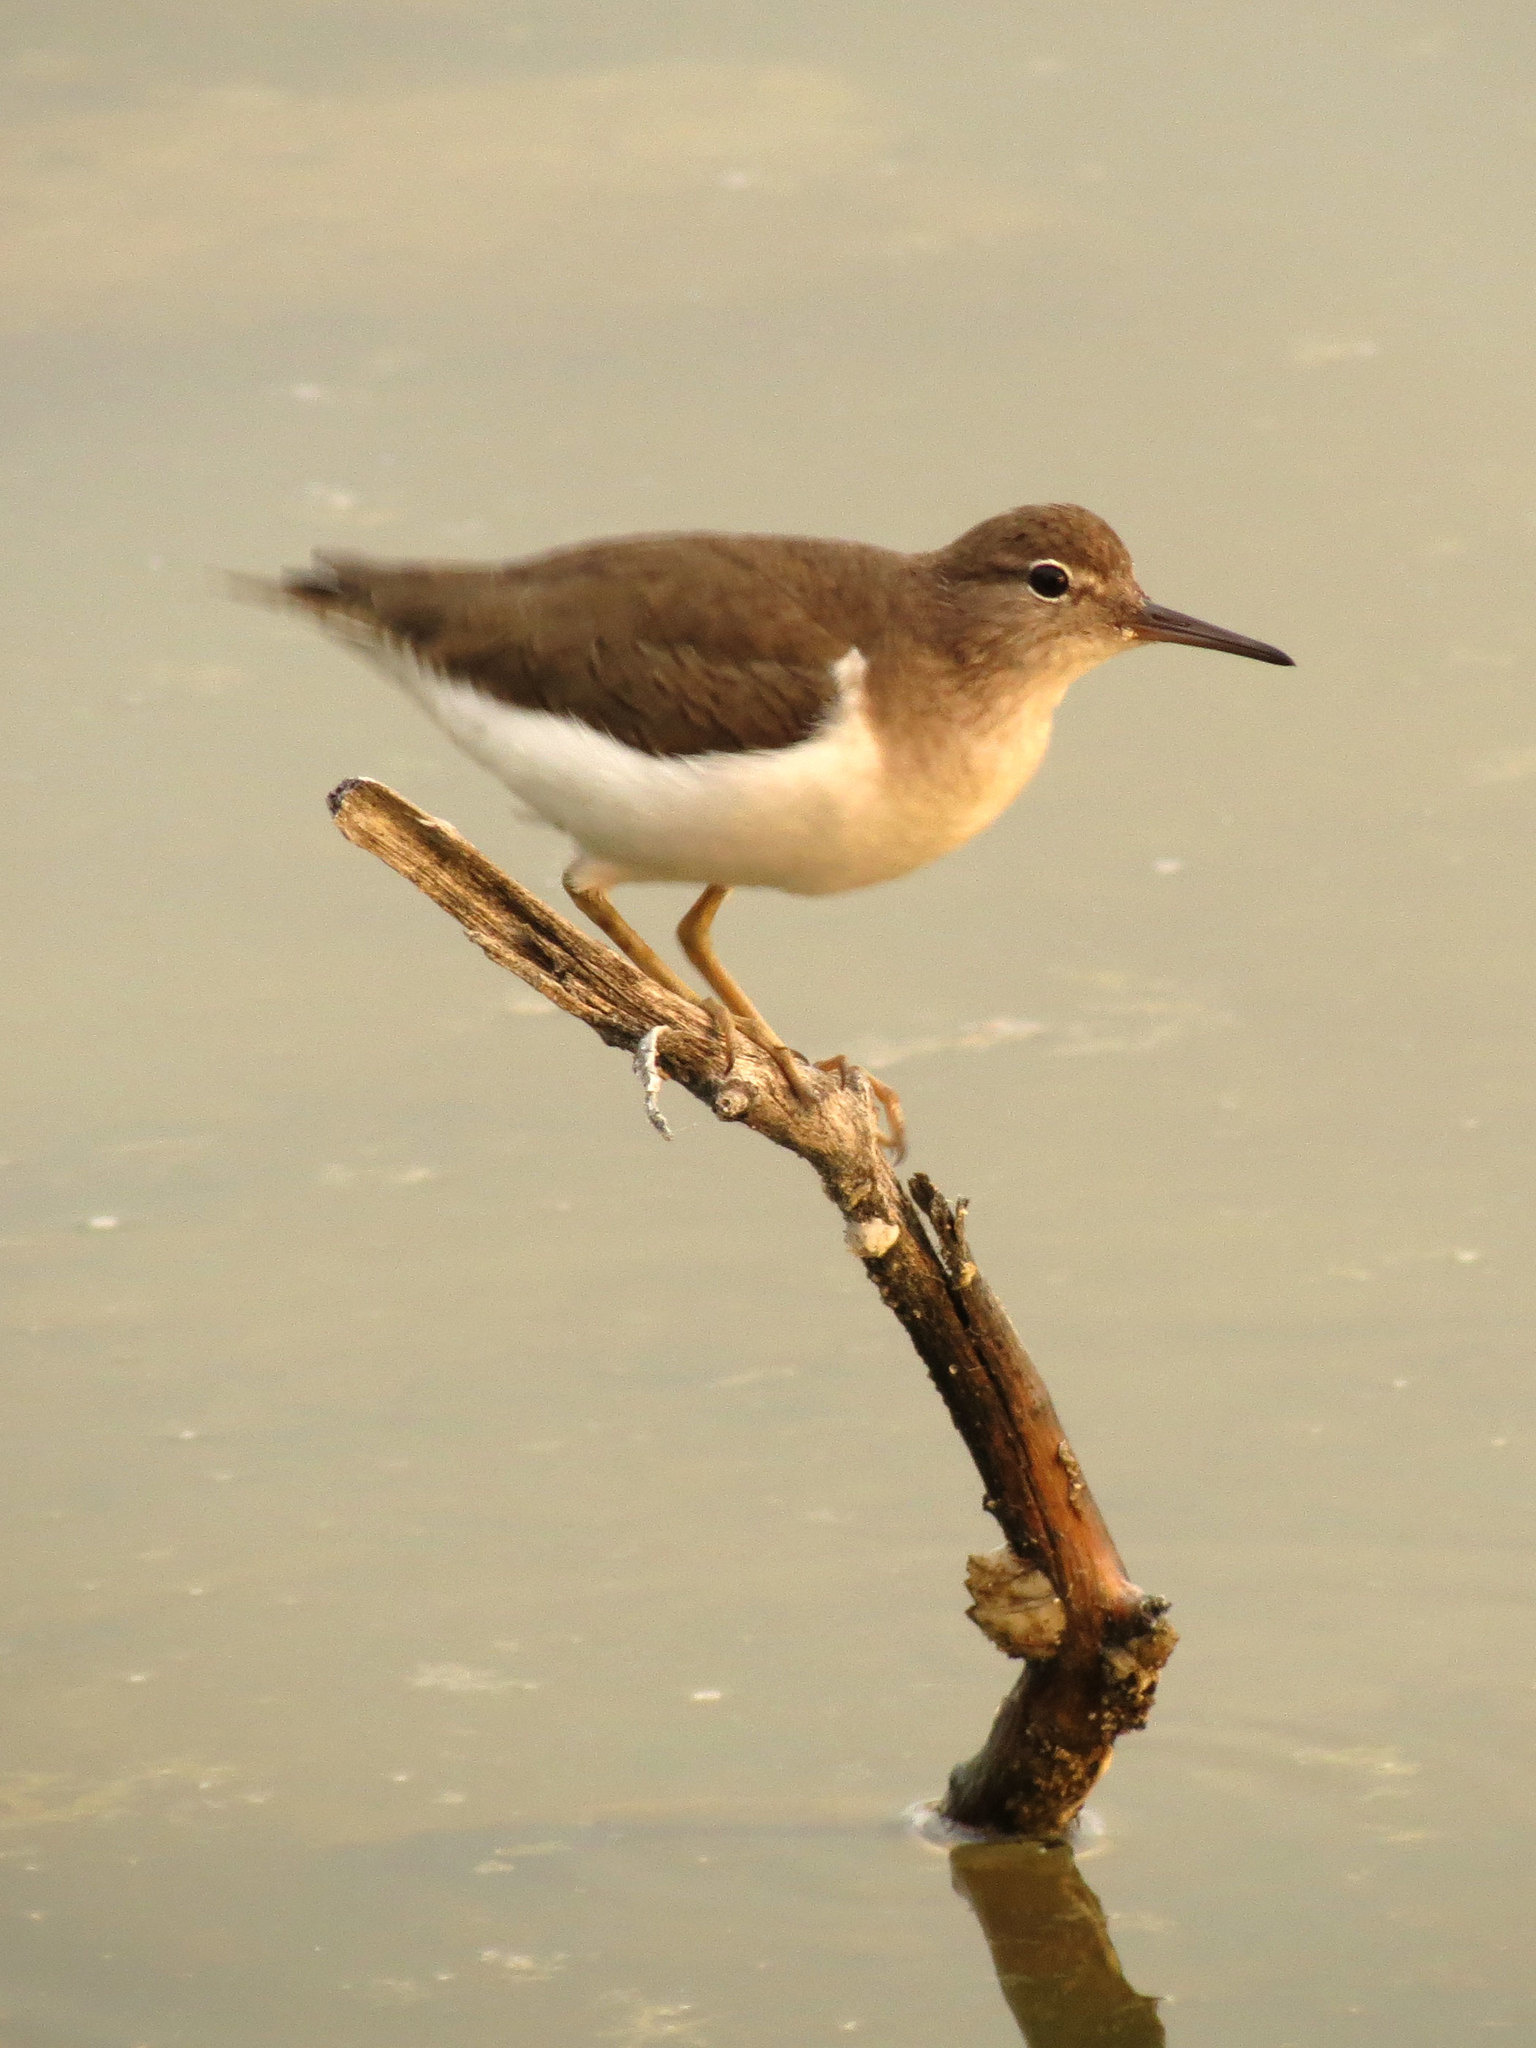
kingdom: Animalia
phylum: Chordata
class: Aves
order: Charadriiformes
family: Scolopacidae
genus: Actitis
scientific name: Actitis macularius
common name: Spotted sandpiper
